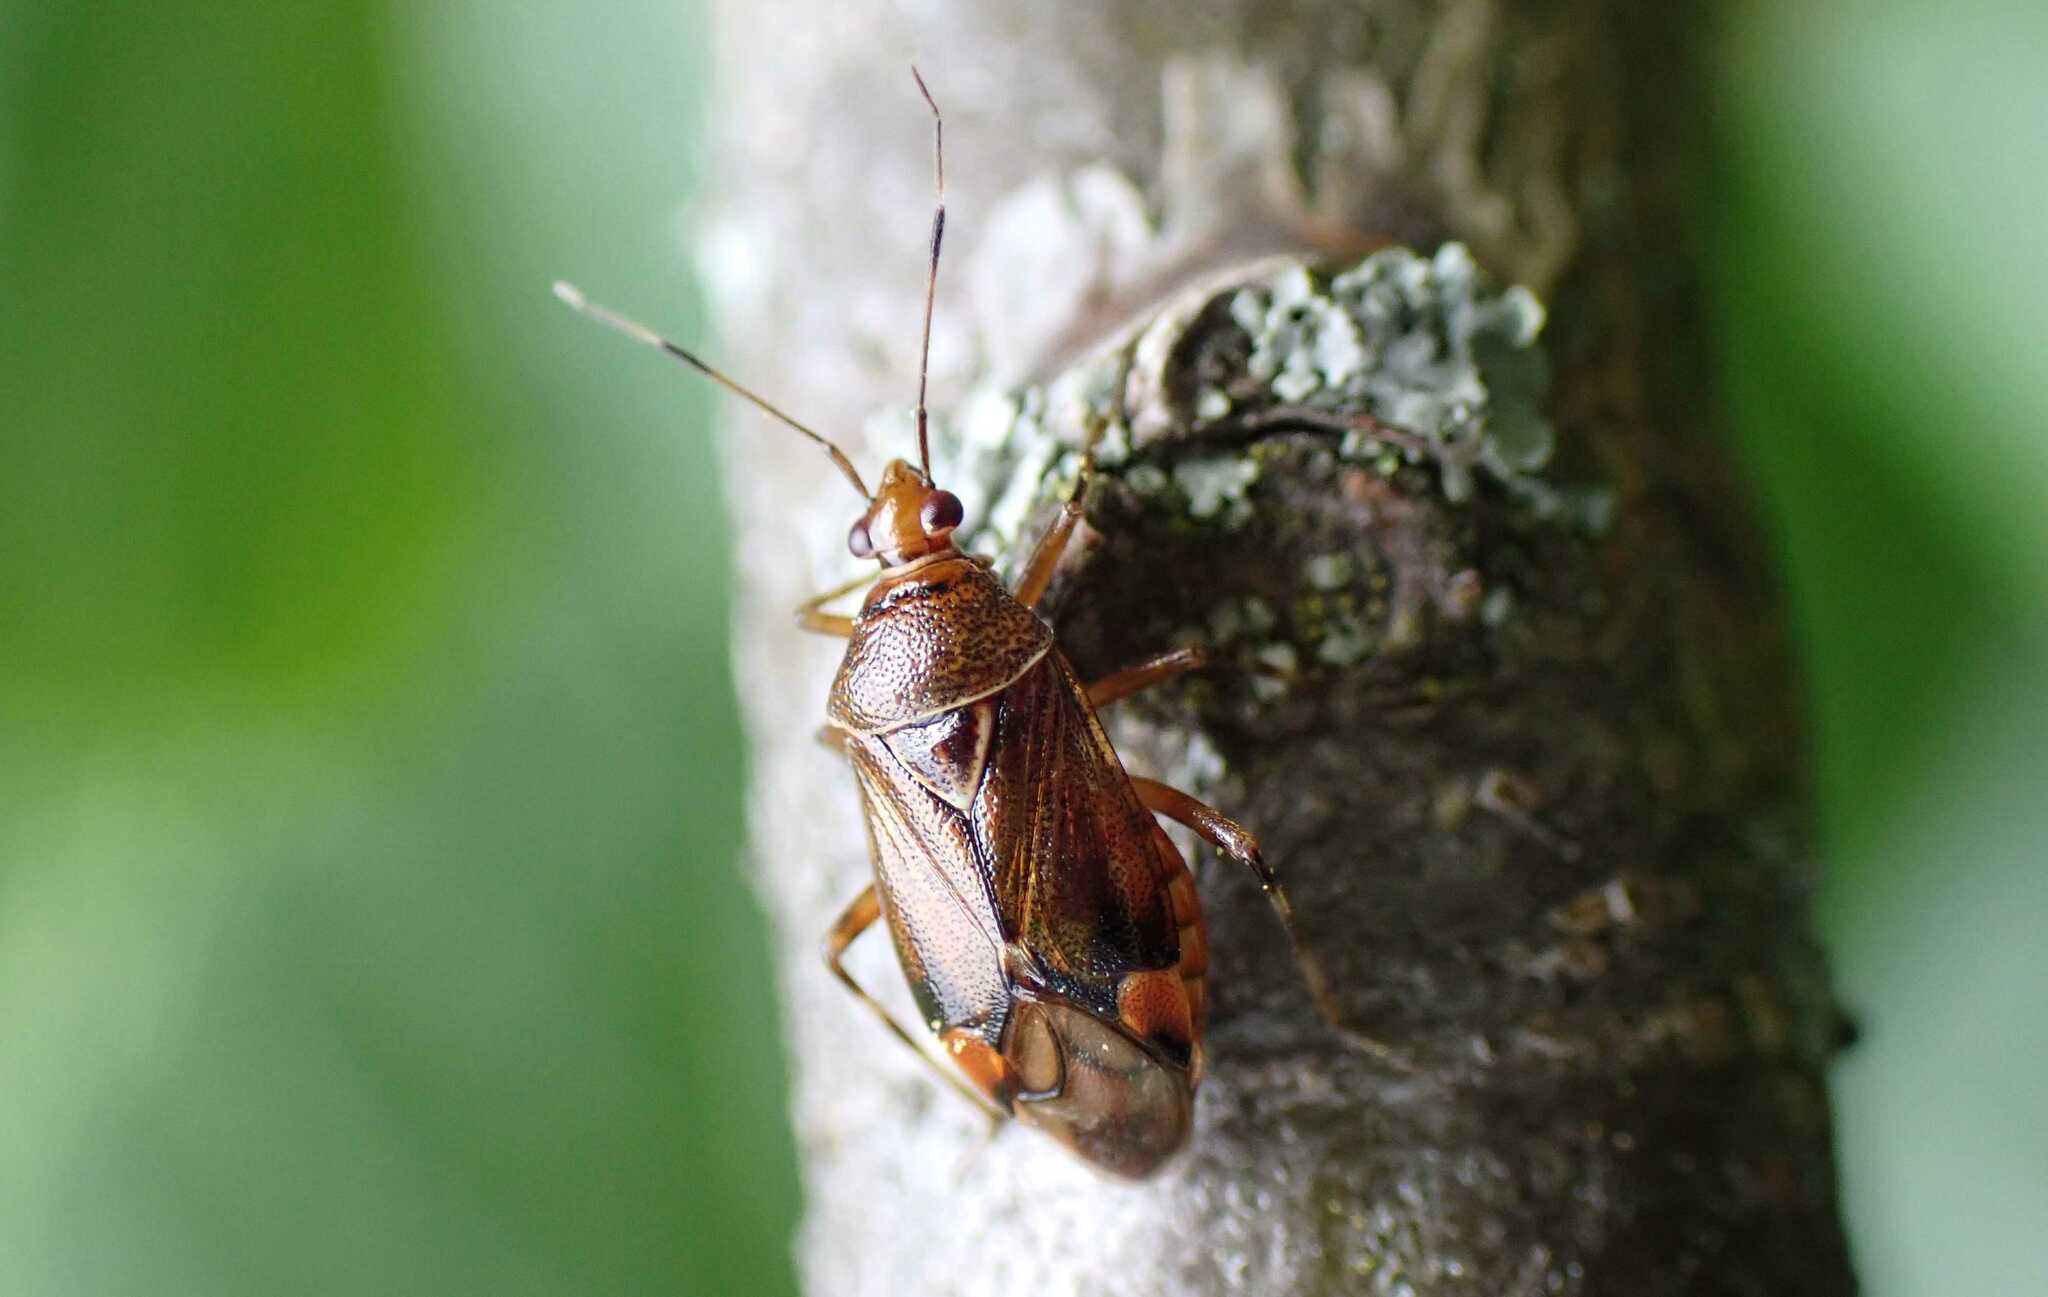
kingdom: Animalia
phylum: Arthropoda
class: Insecta
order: Hemiptera
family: Miridae
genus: Deraeocoris
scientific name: Deraeocoris flavilinea
